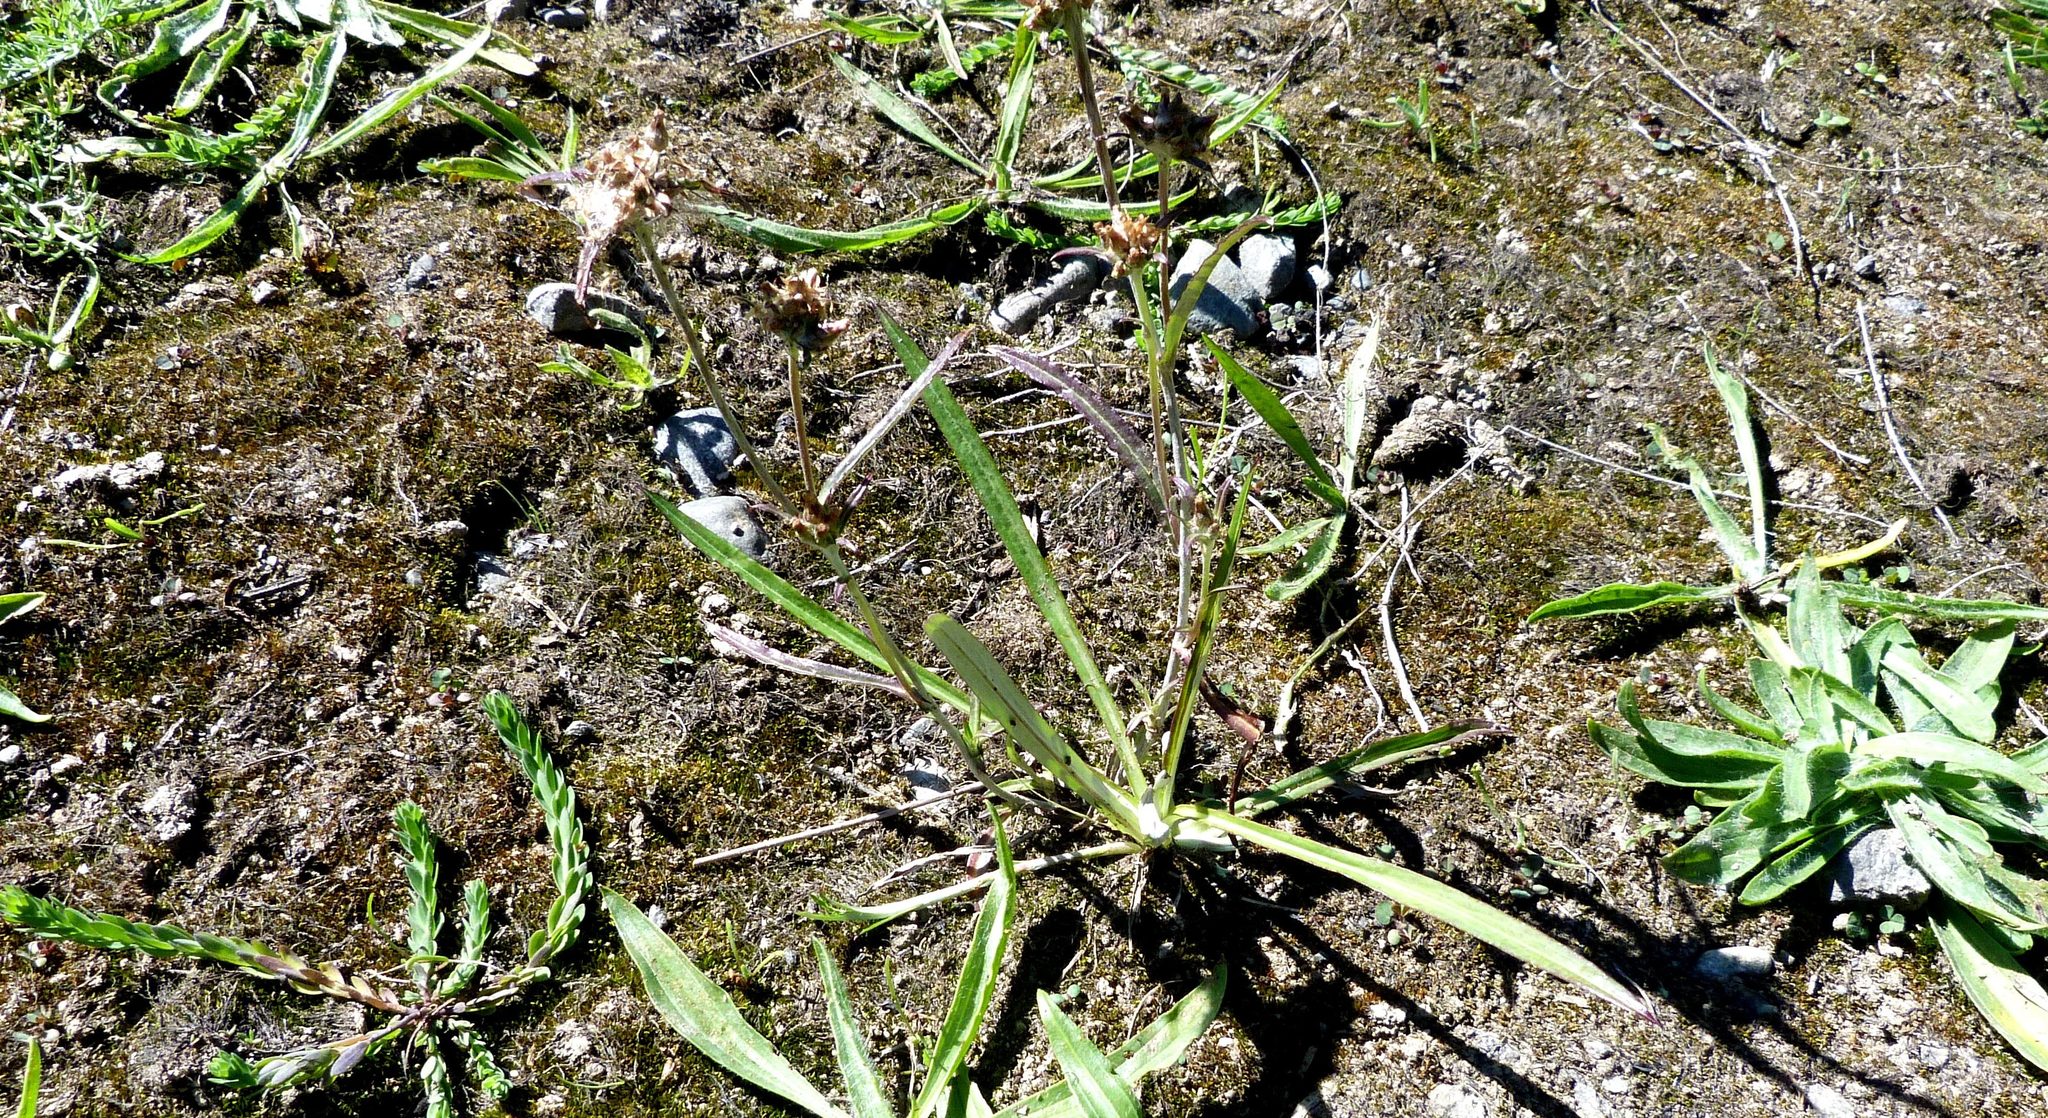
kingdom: Plantae
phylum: Tracheophyta
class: Magnoliopsida
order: Asterales
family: Asteraceae
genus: Euchiton
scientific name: Euchiton involucratus
